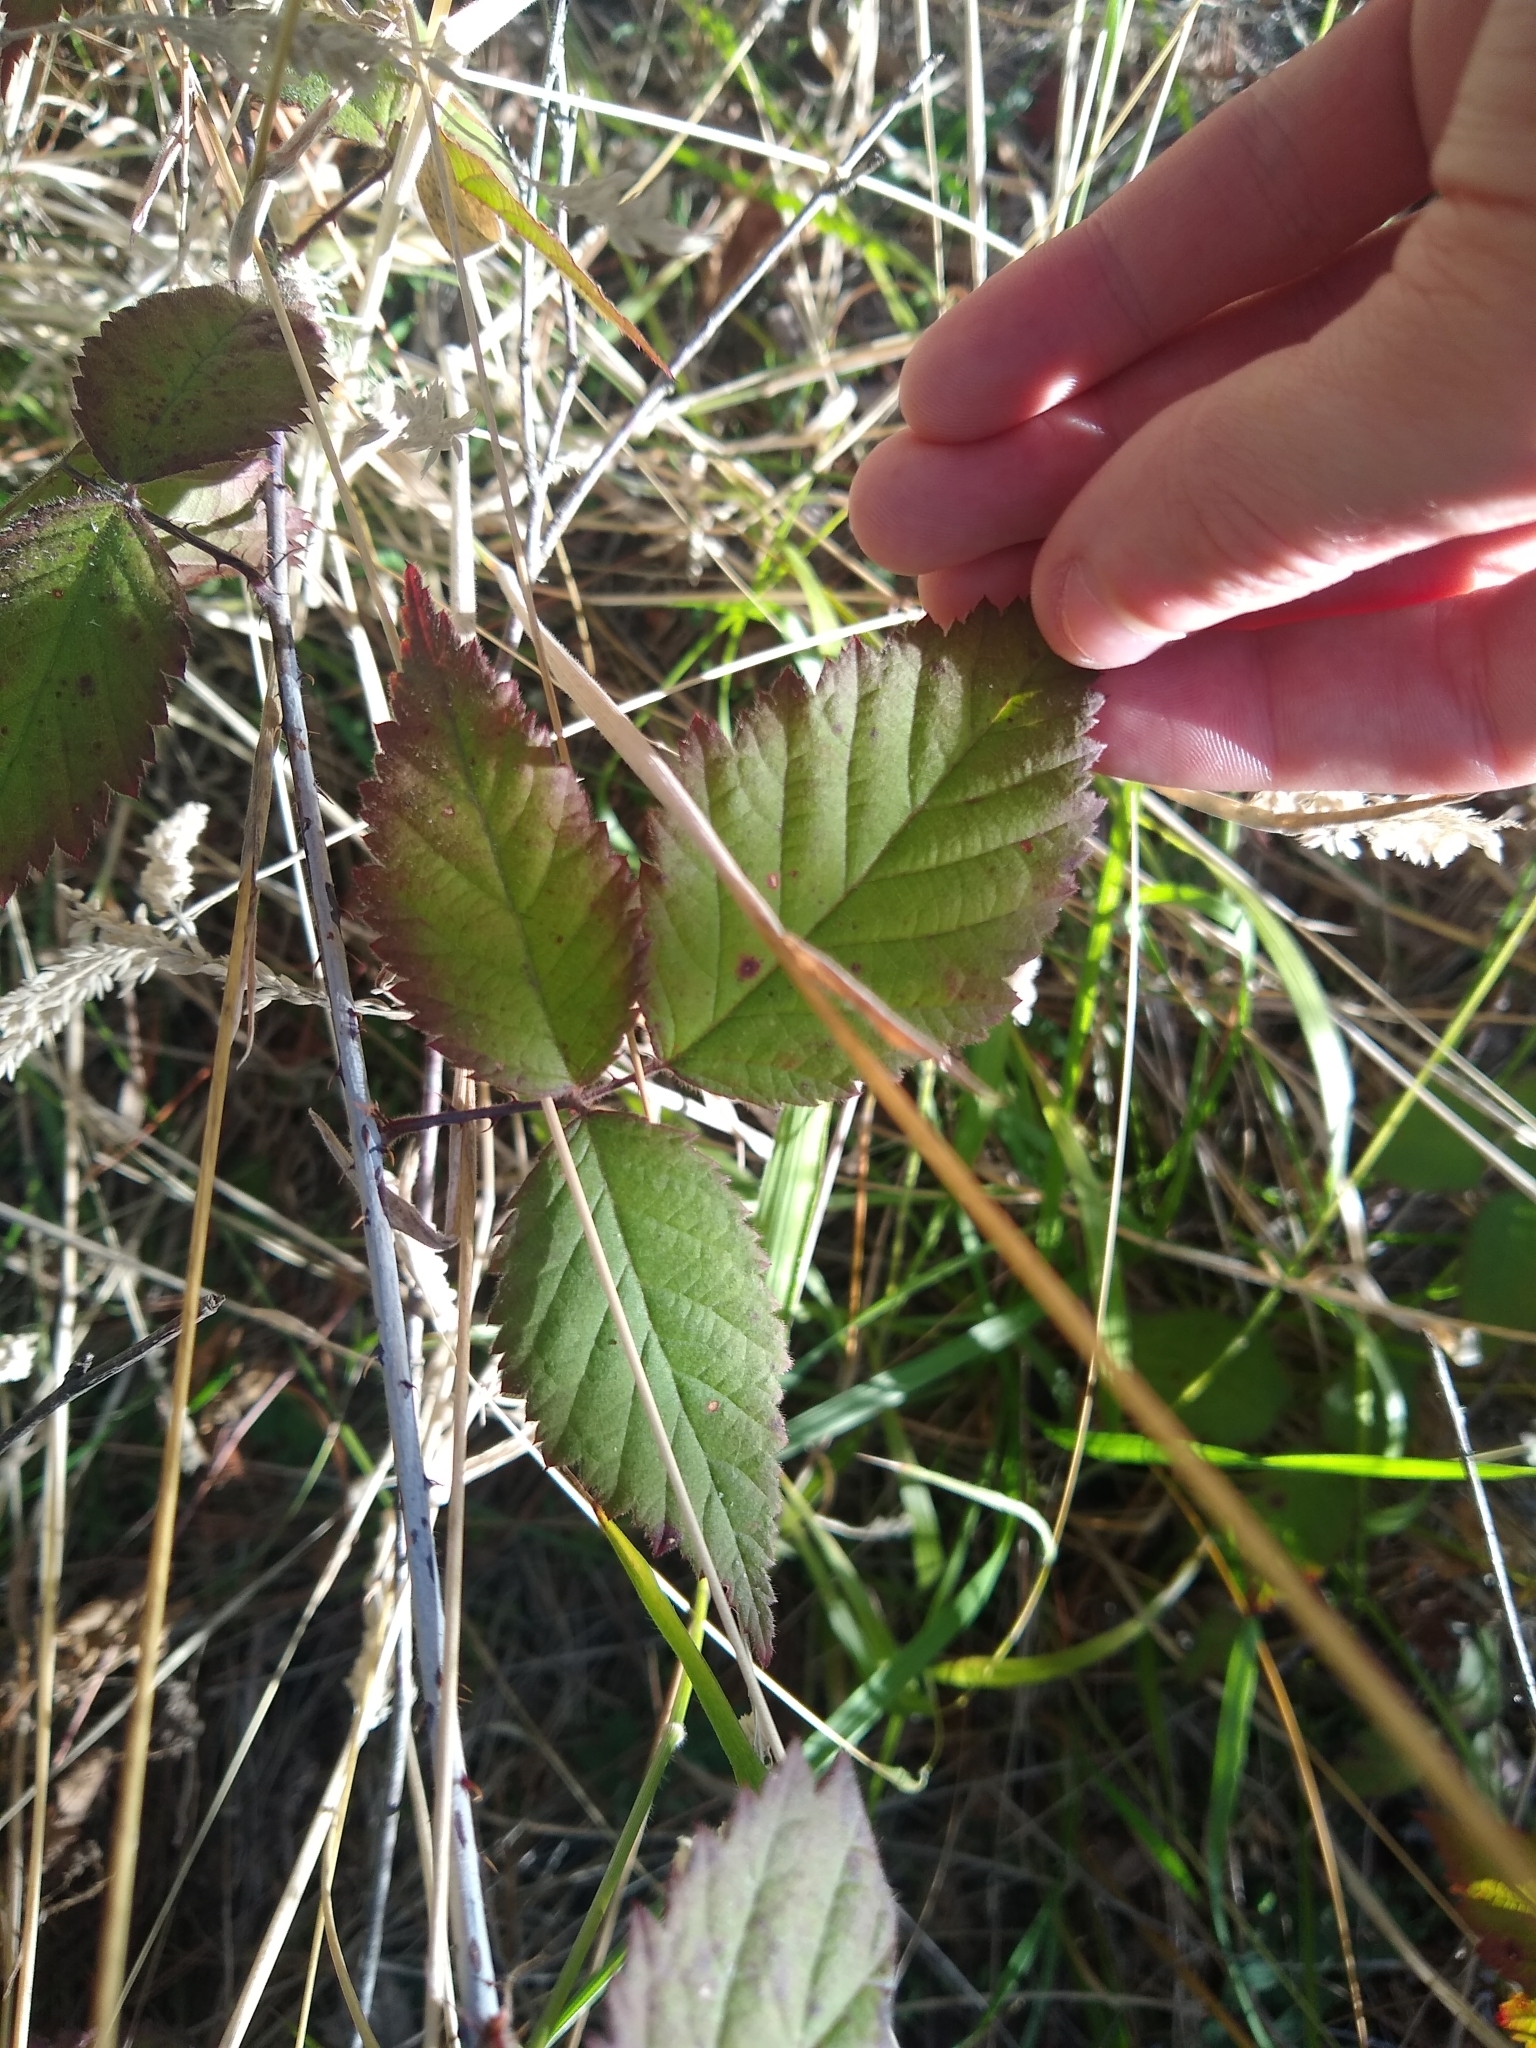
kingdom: Plantae
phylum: Tracheophyta
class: Magnoliopsida
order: Rosales
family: Rosaceae
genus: Rubus
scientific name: Rubus ursinus
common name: Pacific blackberry
